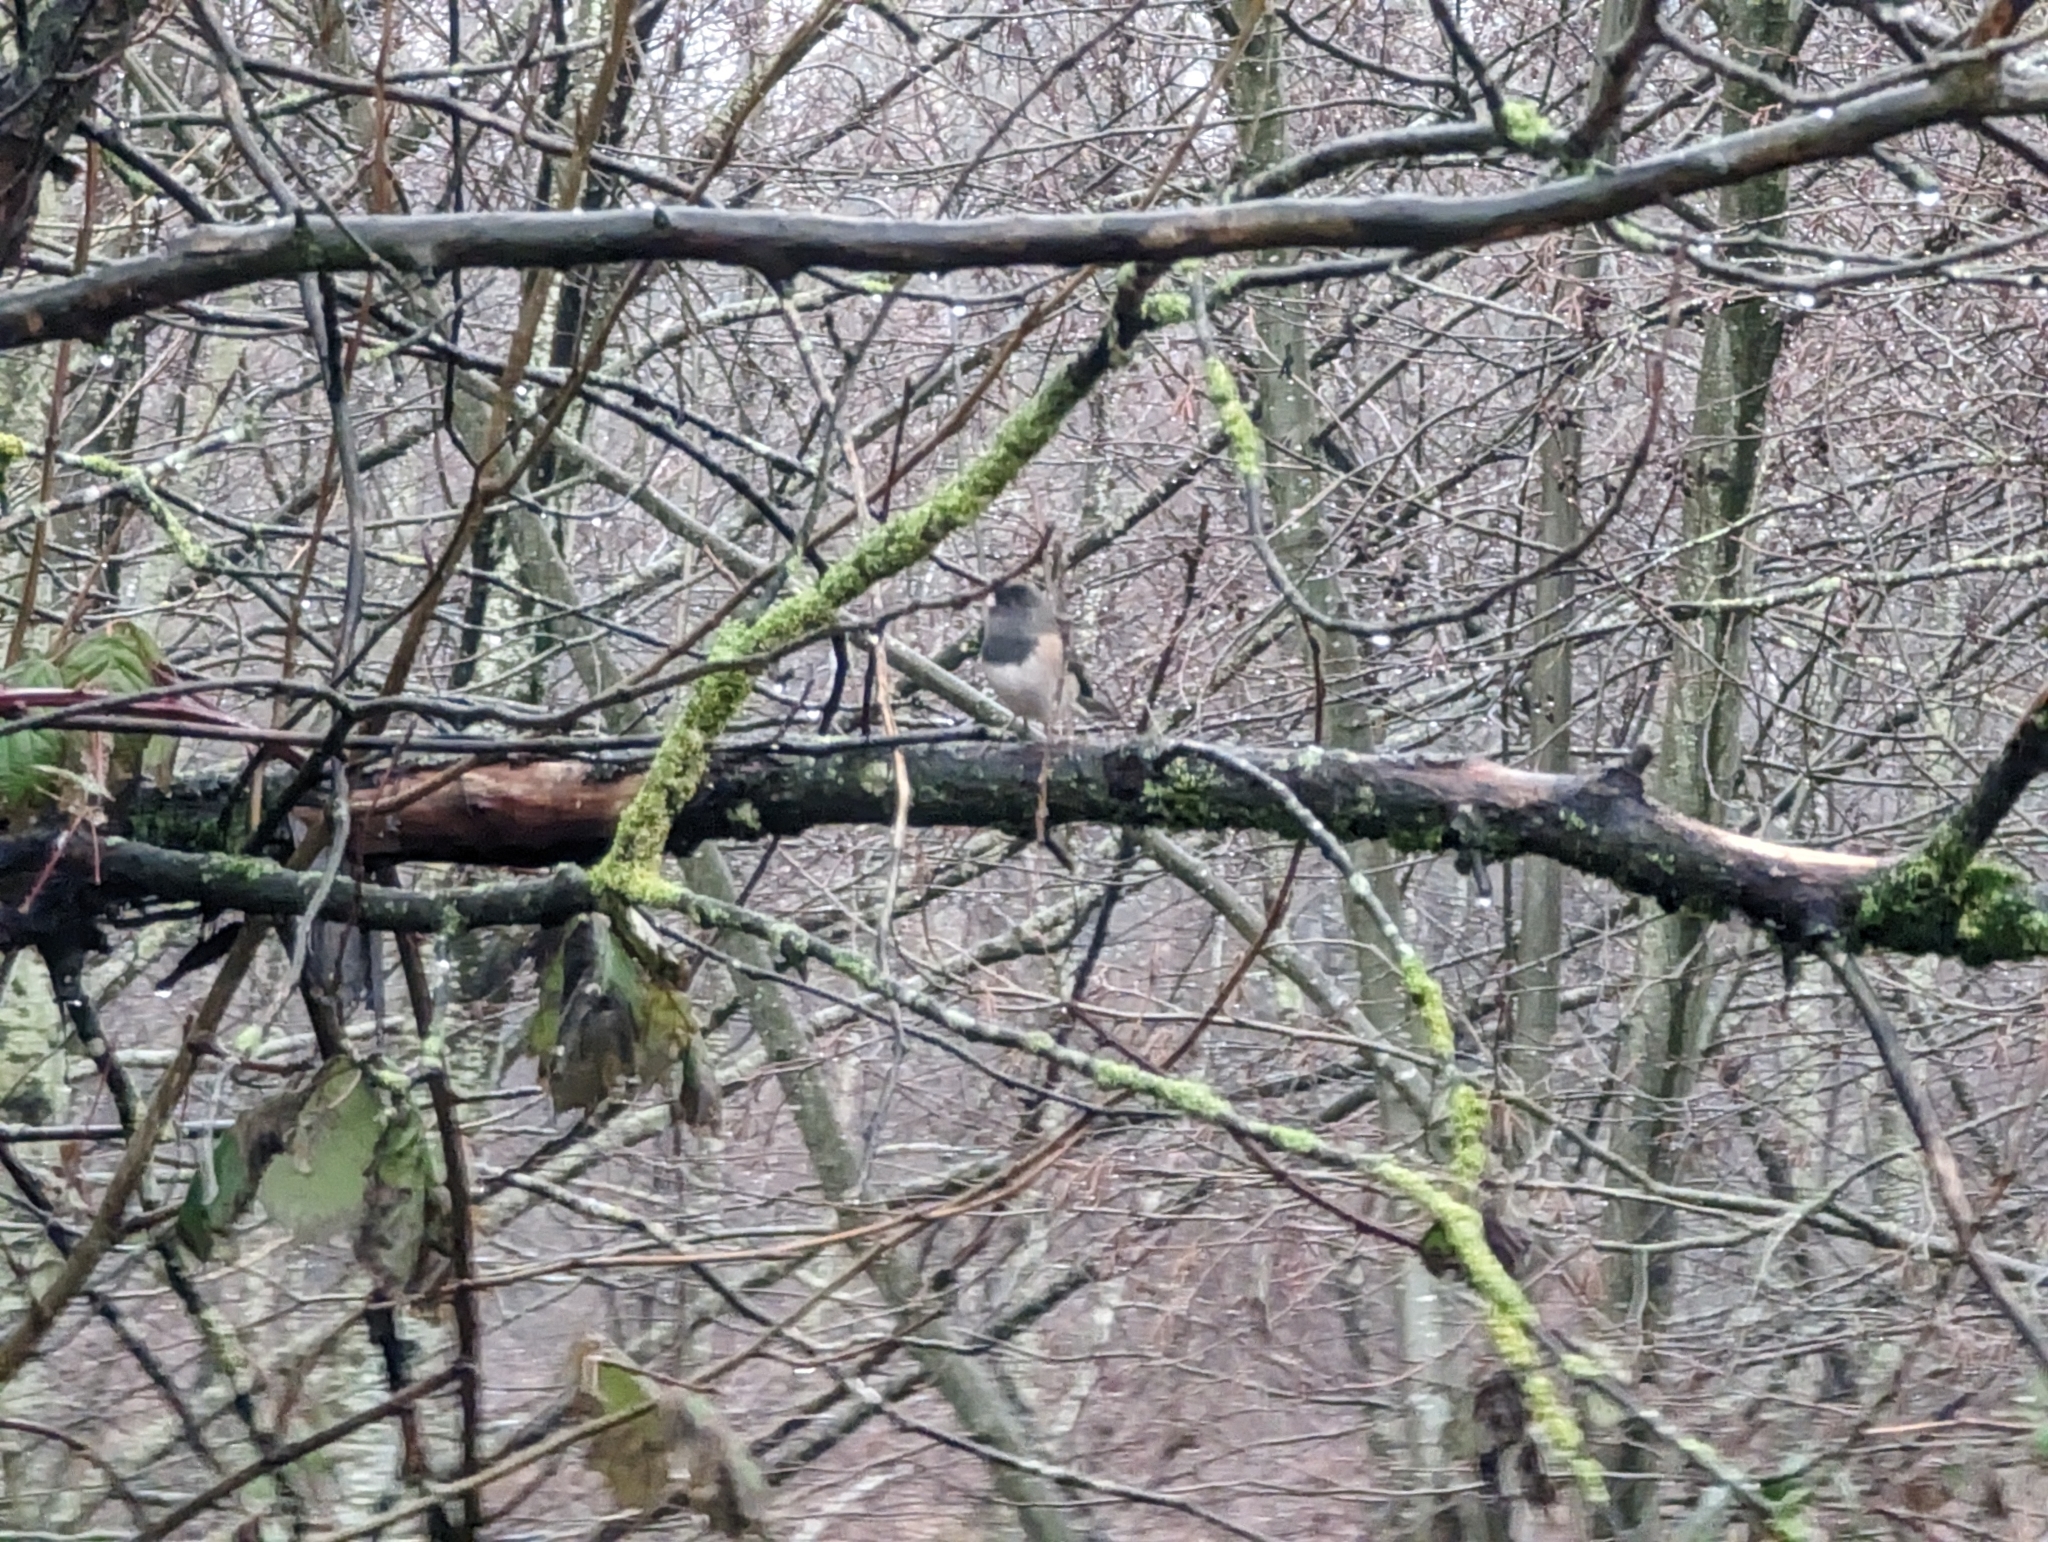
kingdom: Animalia
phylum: Chordata
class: Aves
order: Passeriformes
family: Passerellidae
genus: Junco
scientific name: Junco hyemalis
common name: Dark-eyed junco
